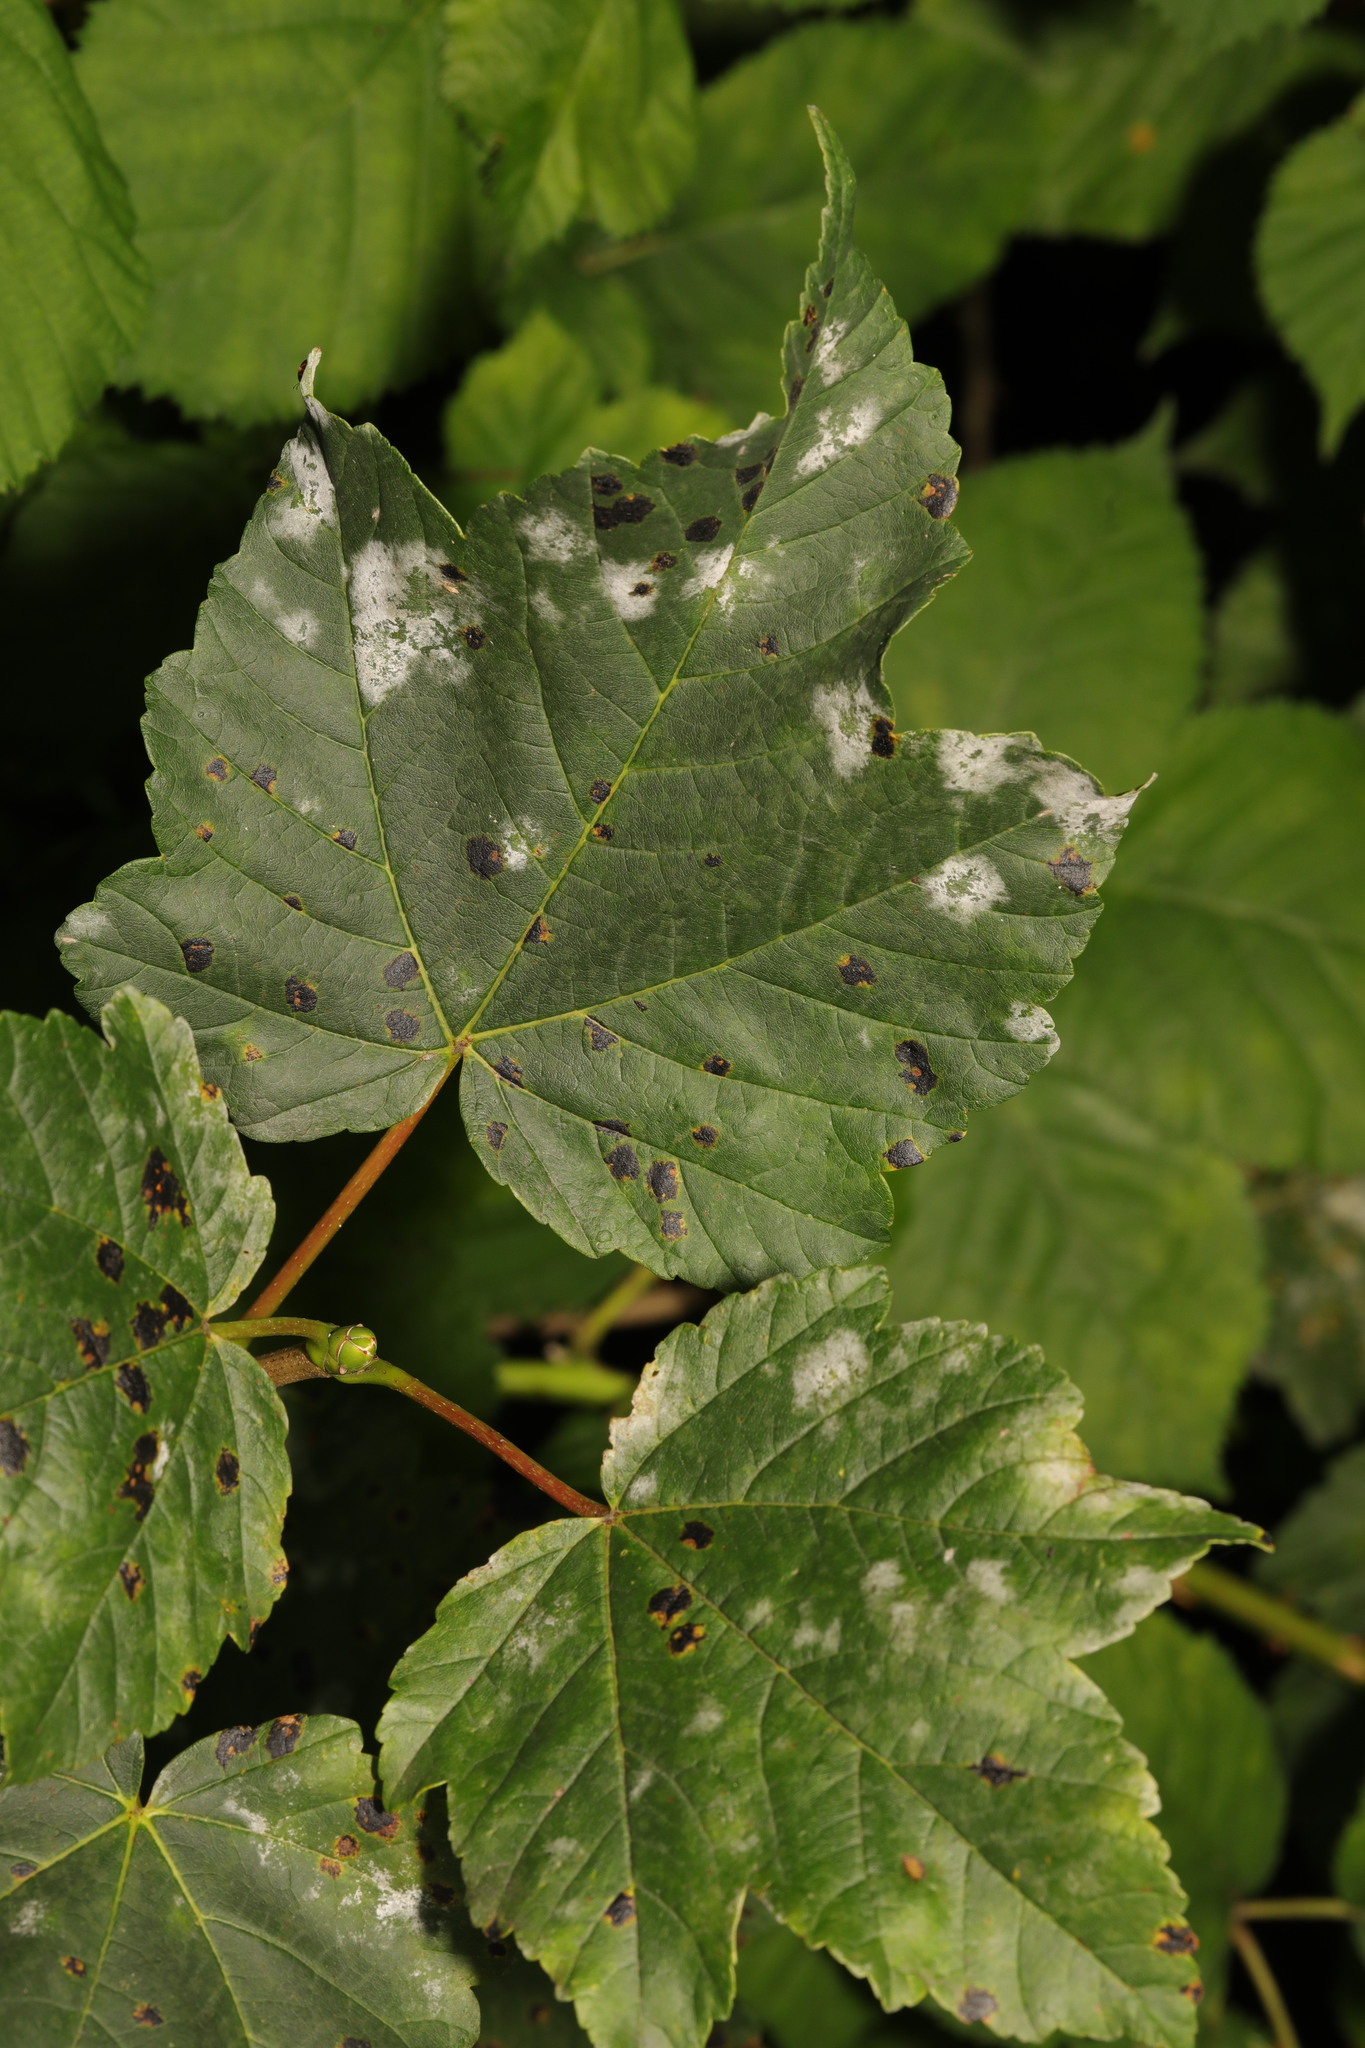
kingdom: Fungi
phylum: Ascomycota
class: Leotiomycetes
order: Helotiales
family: Erysiphaceae
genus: Sawadaea
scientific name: Sawadaea bicornis
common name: Maple mildew
